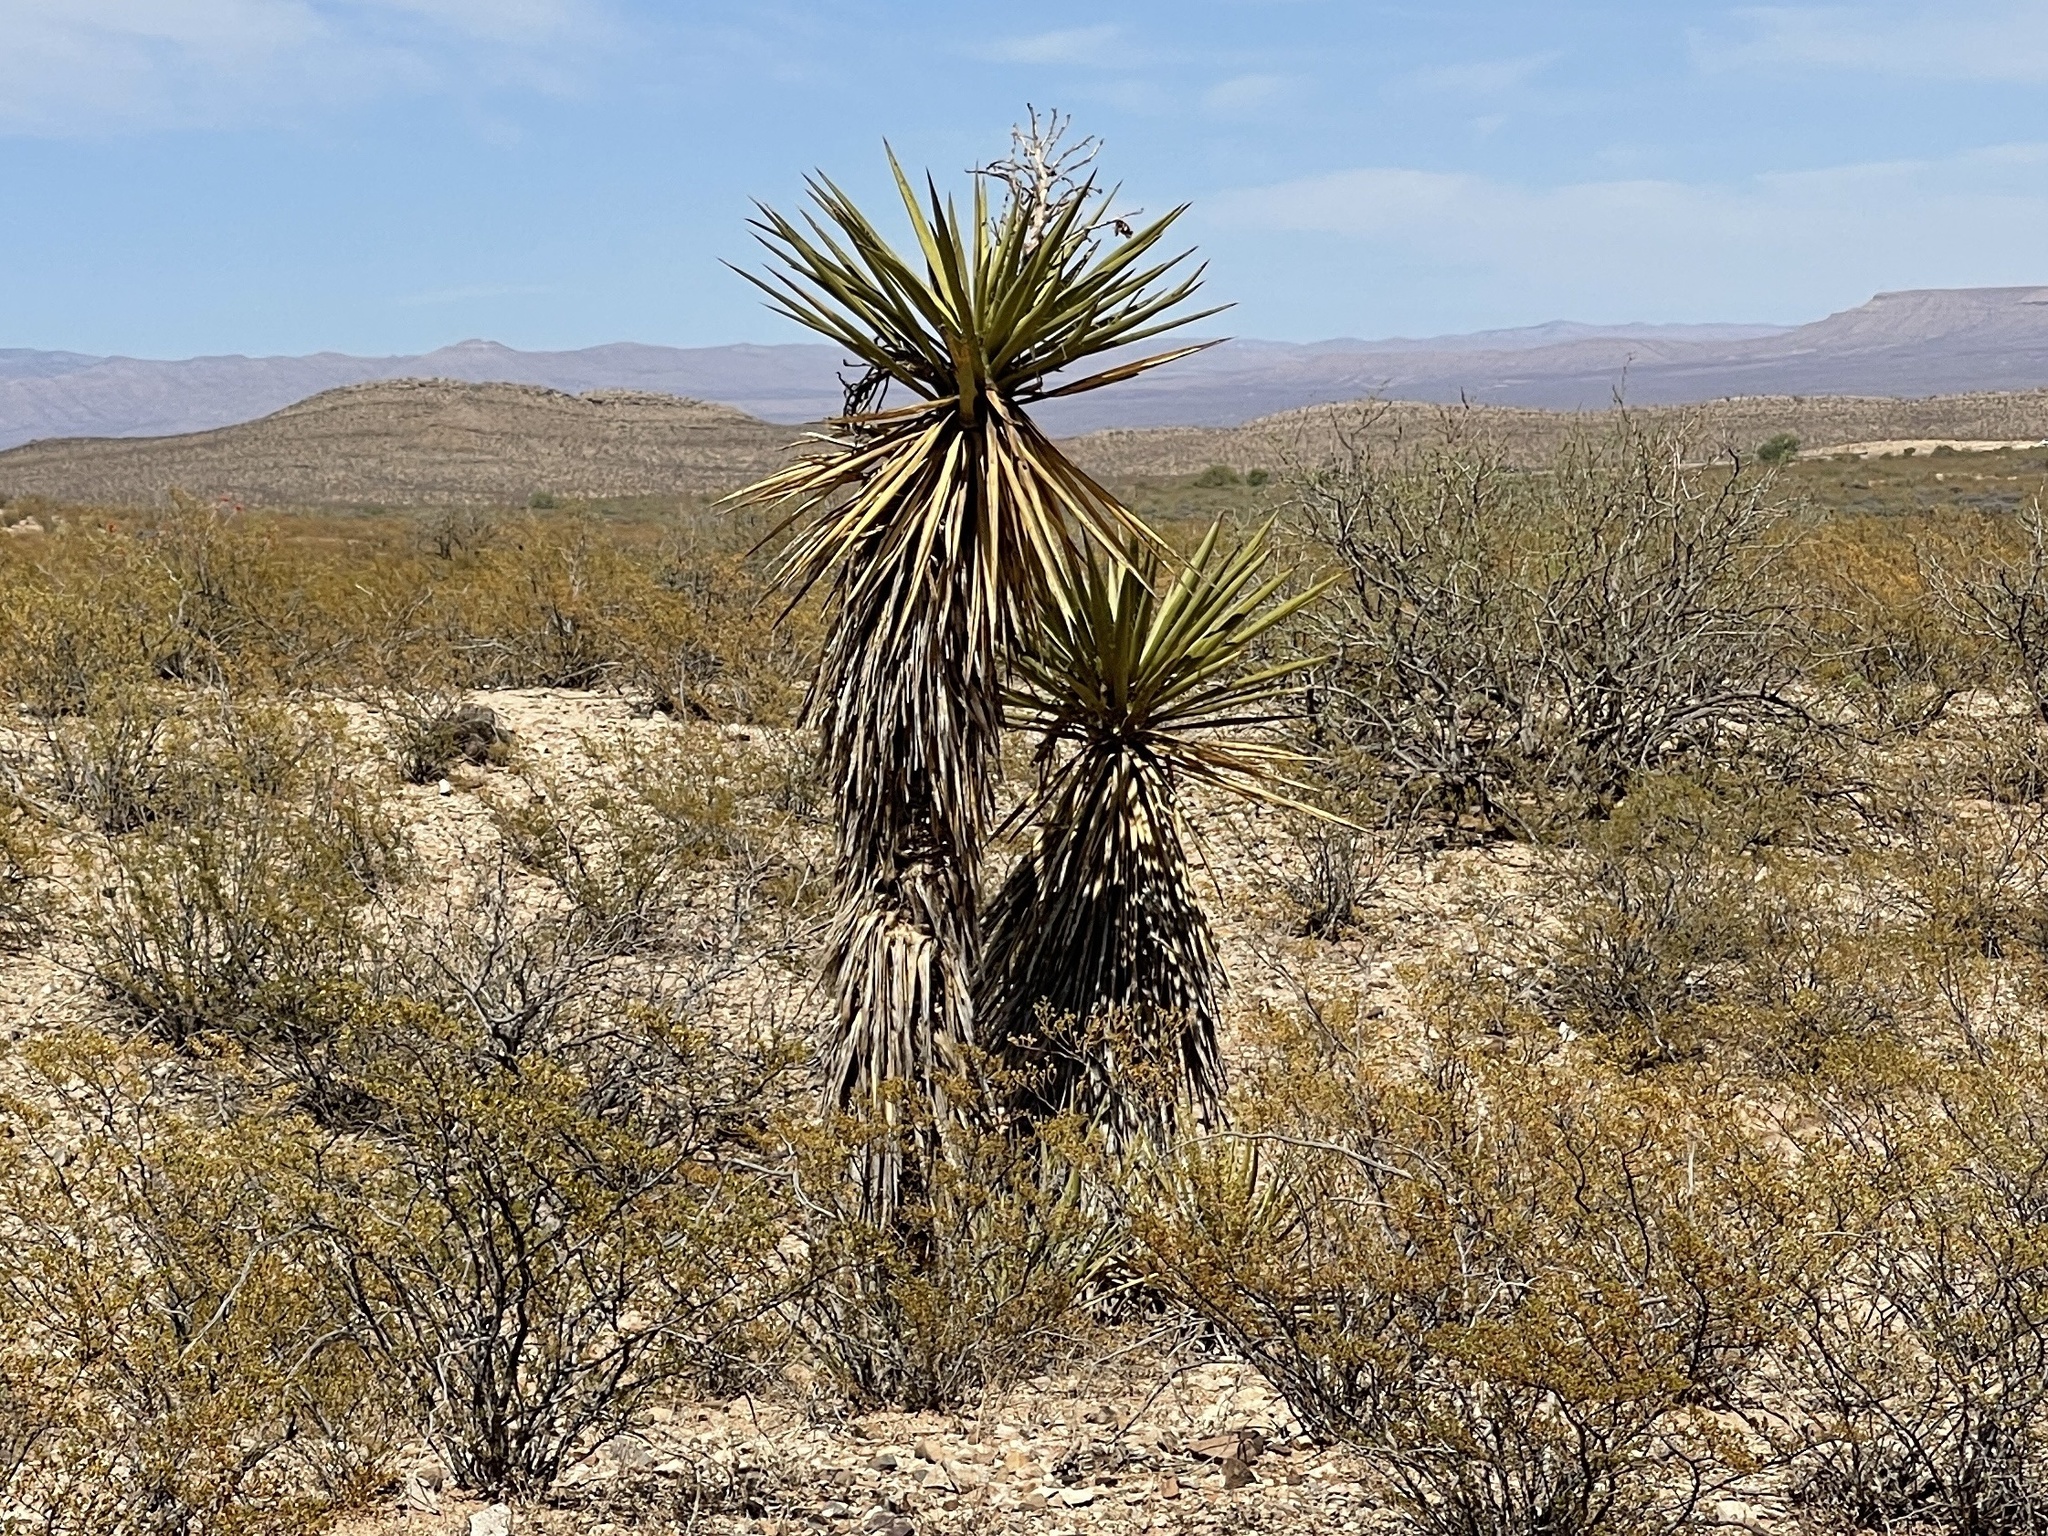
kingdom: Plantae
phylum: Tracheophyta
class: Liliopsida
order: Asparagales
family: Asparagaceae
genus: Yucca
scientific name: Yucca treculiana
